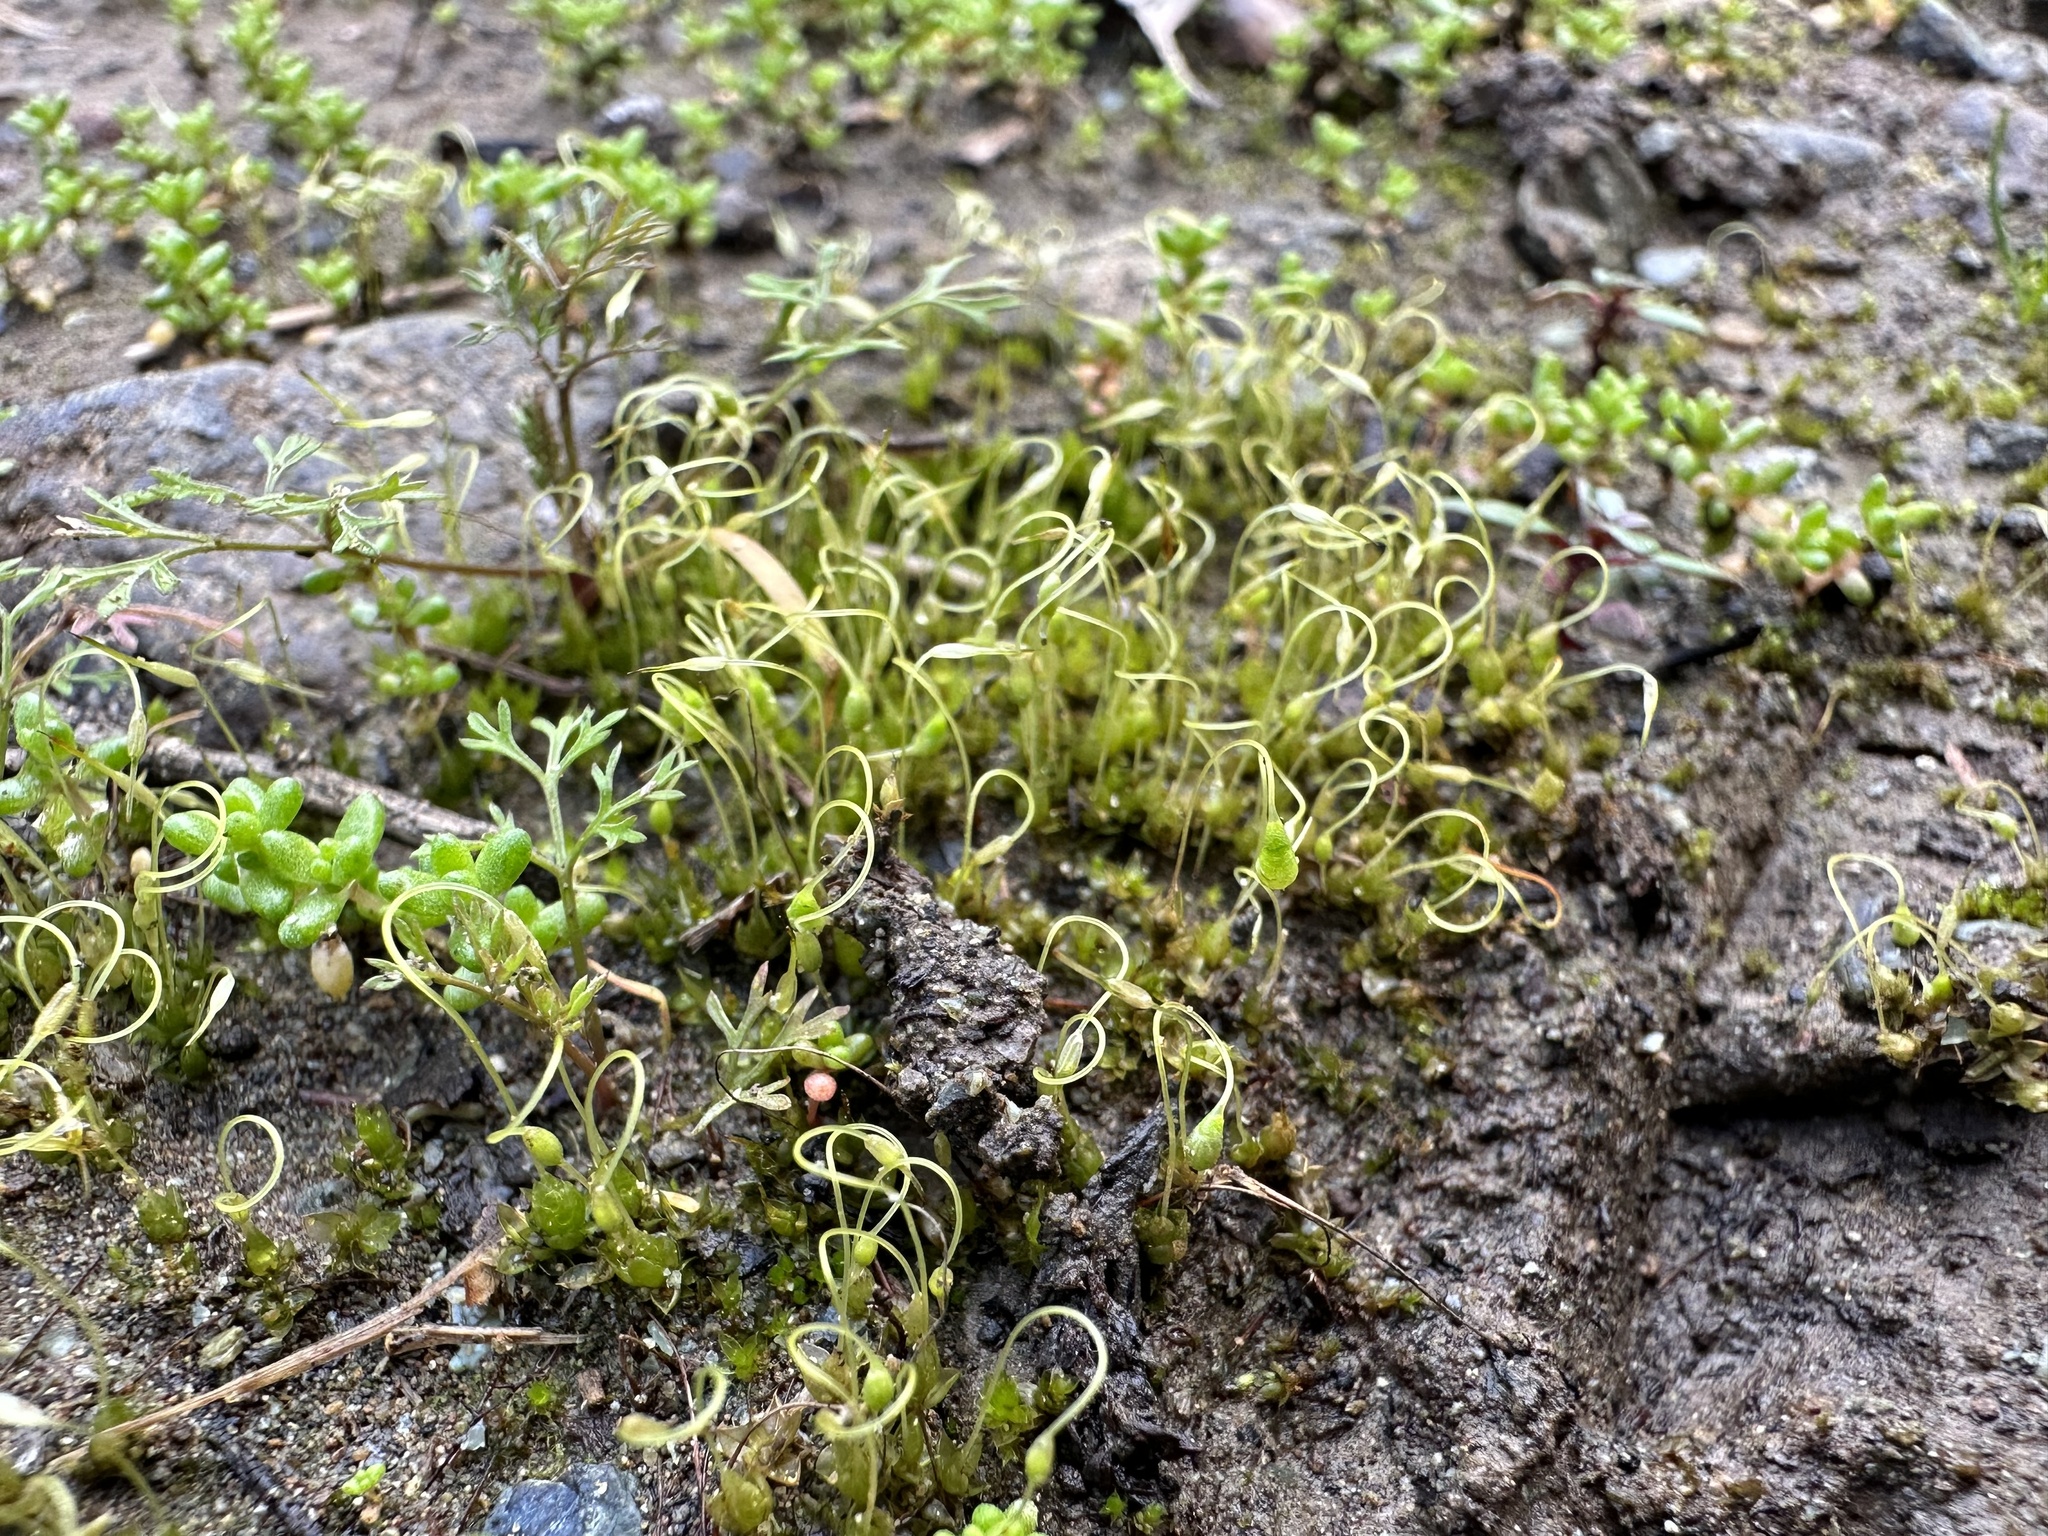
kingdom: Plantae
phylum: Bryophyta
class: Bryopsida
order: Funariales
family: Funariaceae
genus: Funaria
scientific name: Funaria hygrometrica
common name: Common cord moss
